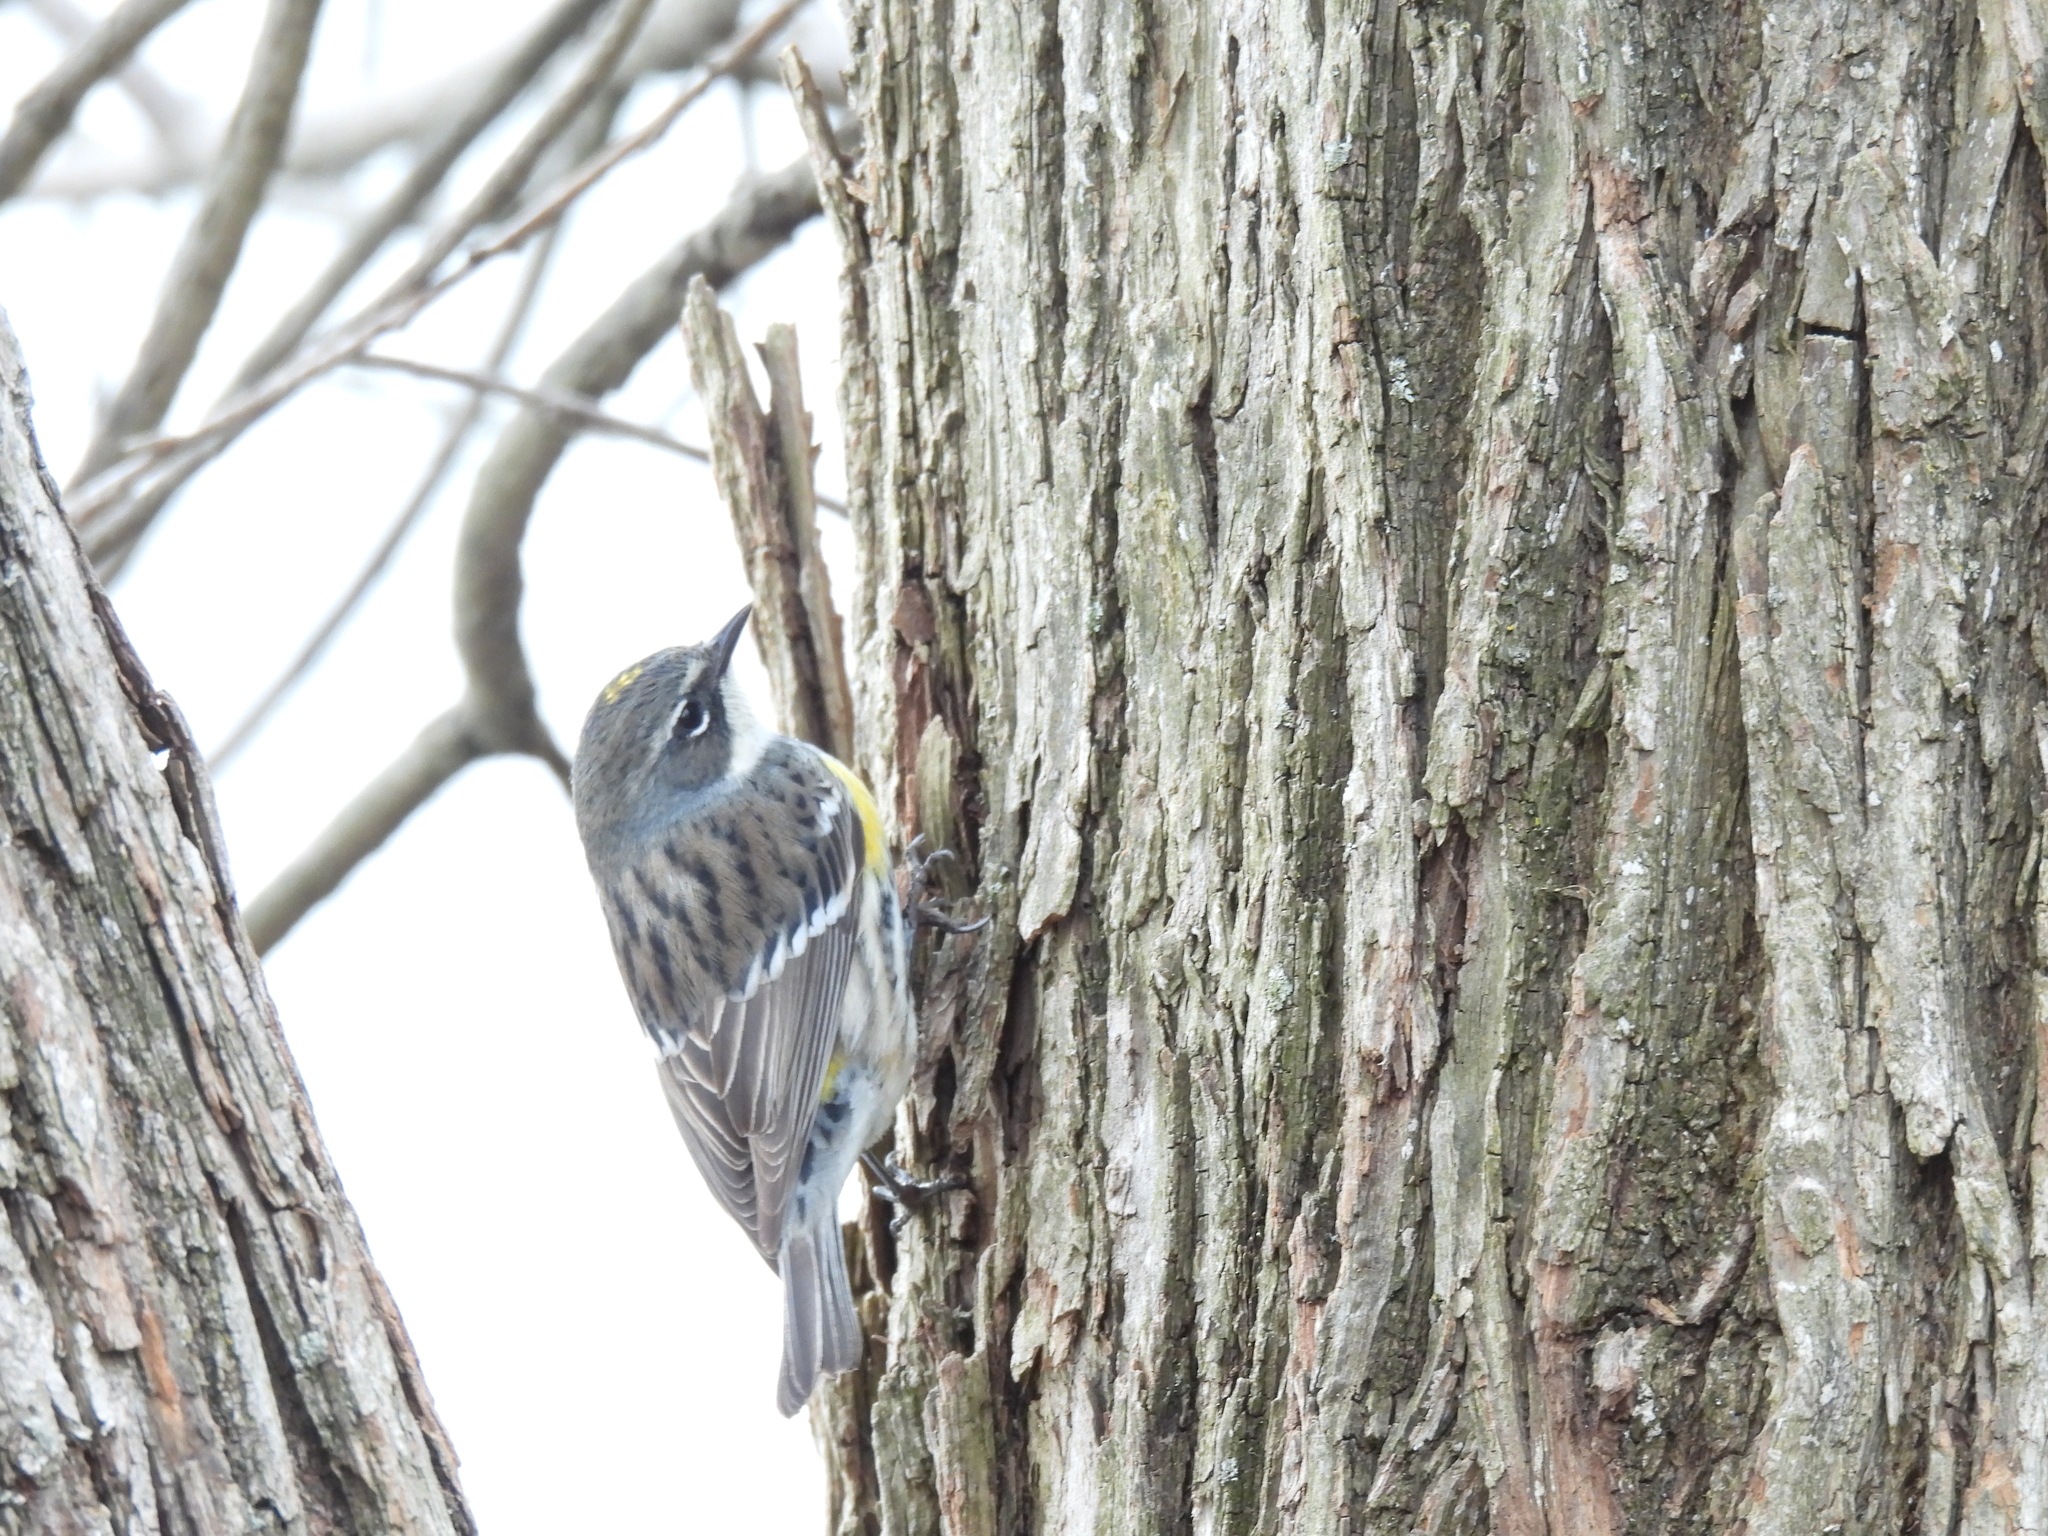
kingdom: Animalia
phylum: Chordata
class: Aves
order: Passeriformes
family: Parulidae
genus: Setophaga
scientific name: Setophaga coronata
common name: Myrtle warbler
